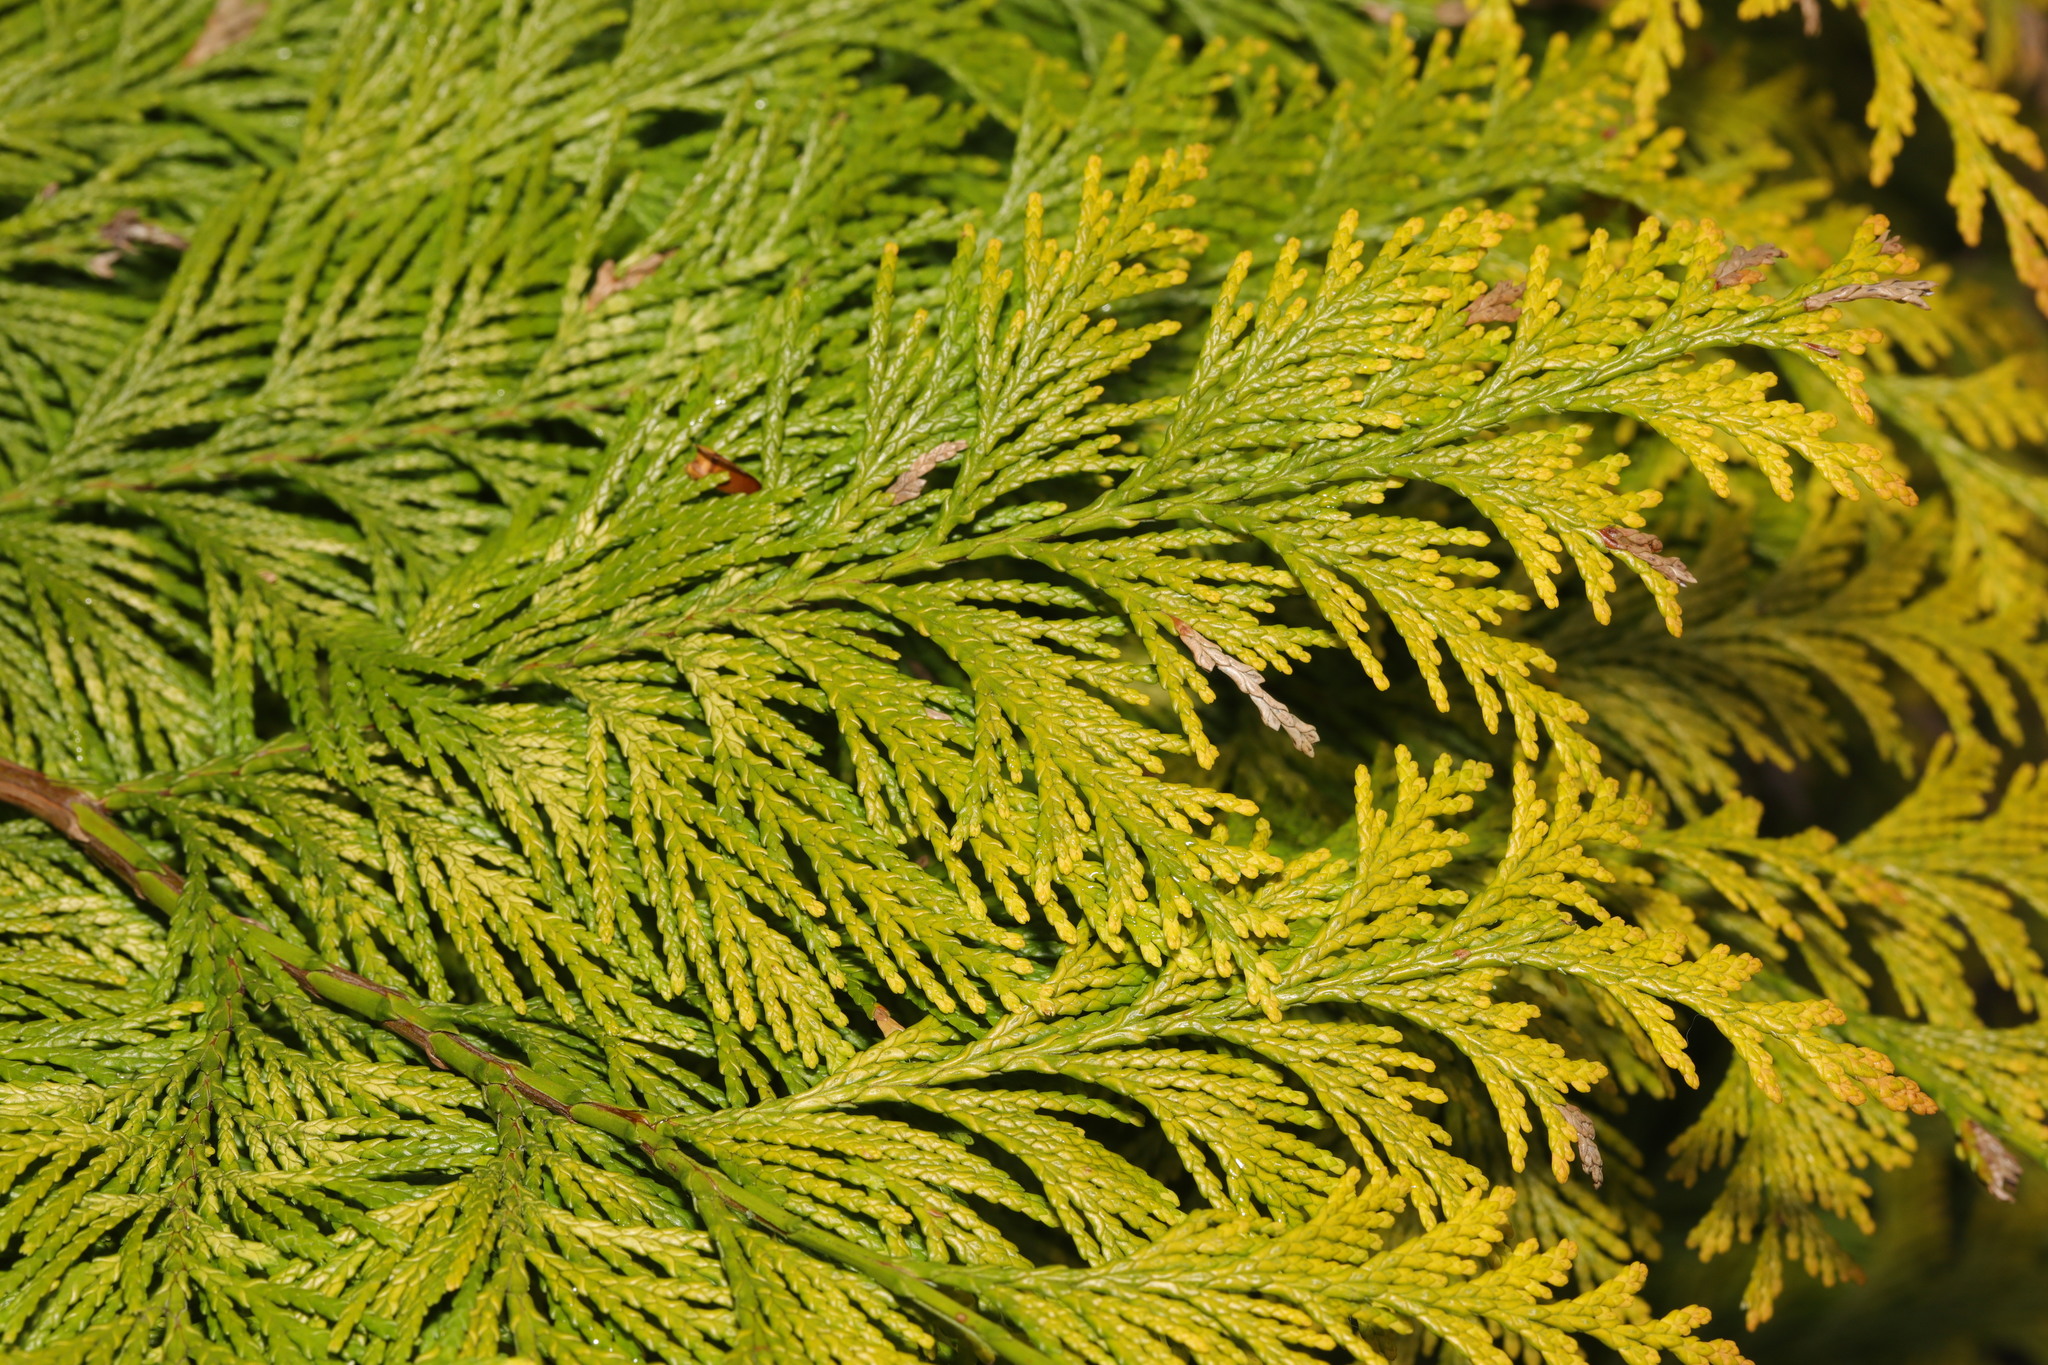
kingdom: Plantae
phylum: Tracheophyta
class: Pinopsida
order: Pinales
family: Cupressaceae
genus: Chamaecyparis
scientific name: Chamaecyparis lawsoniana
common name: Lawson's cypress
